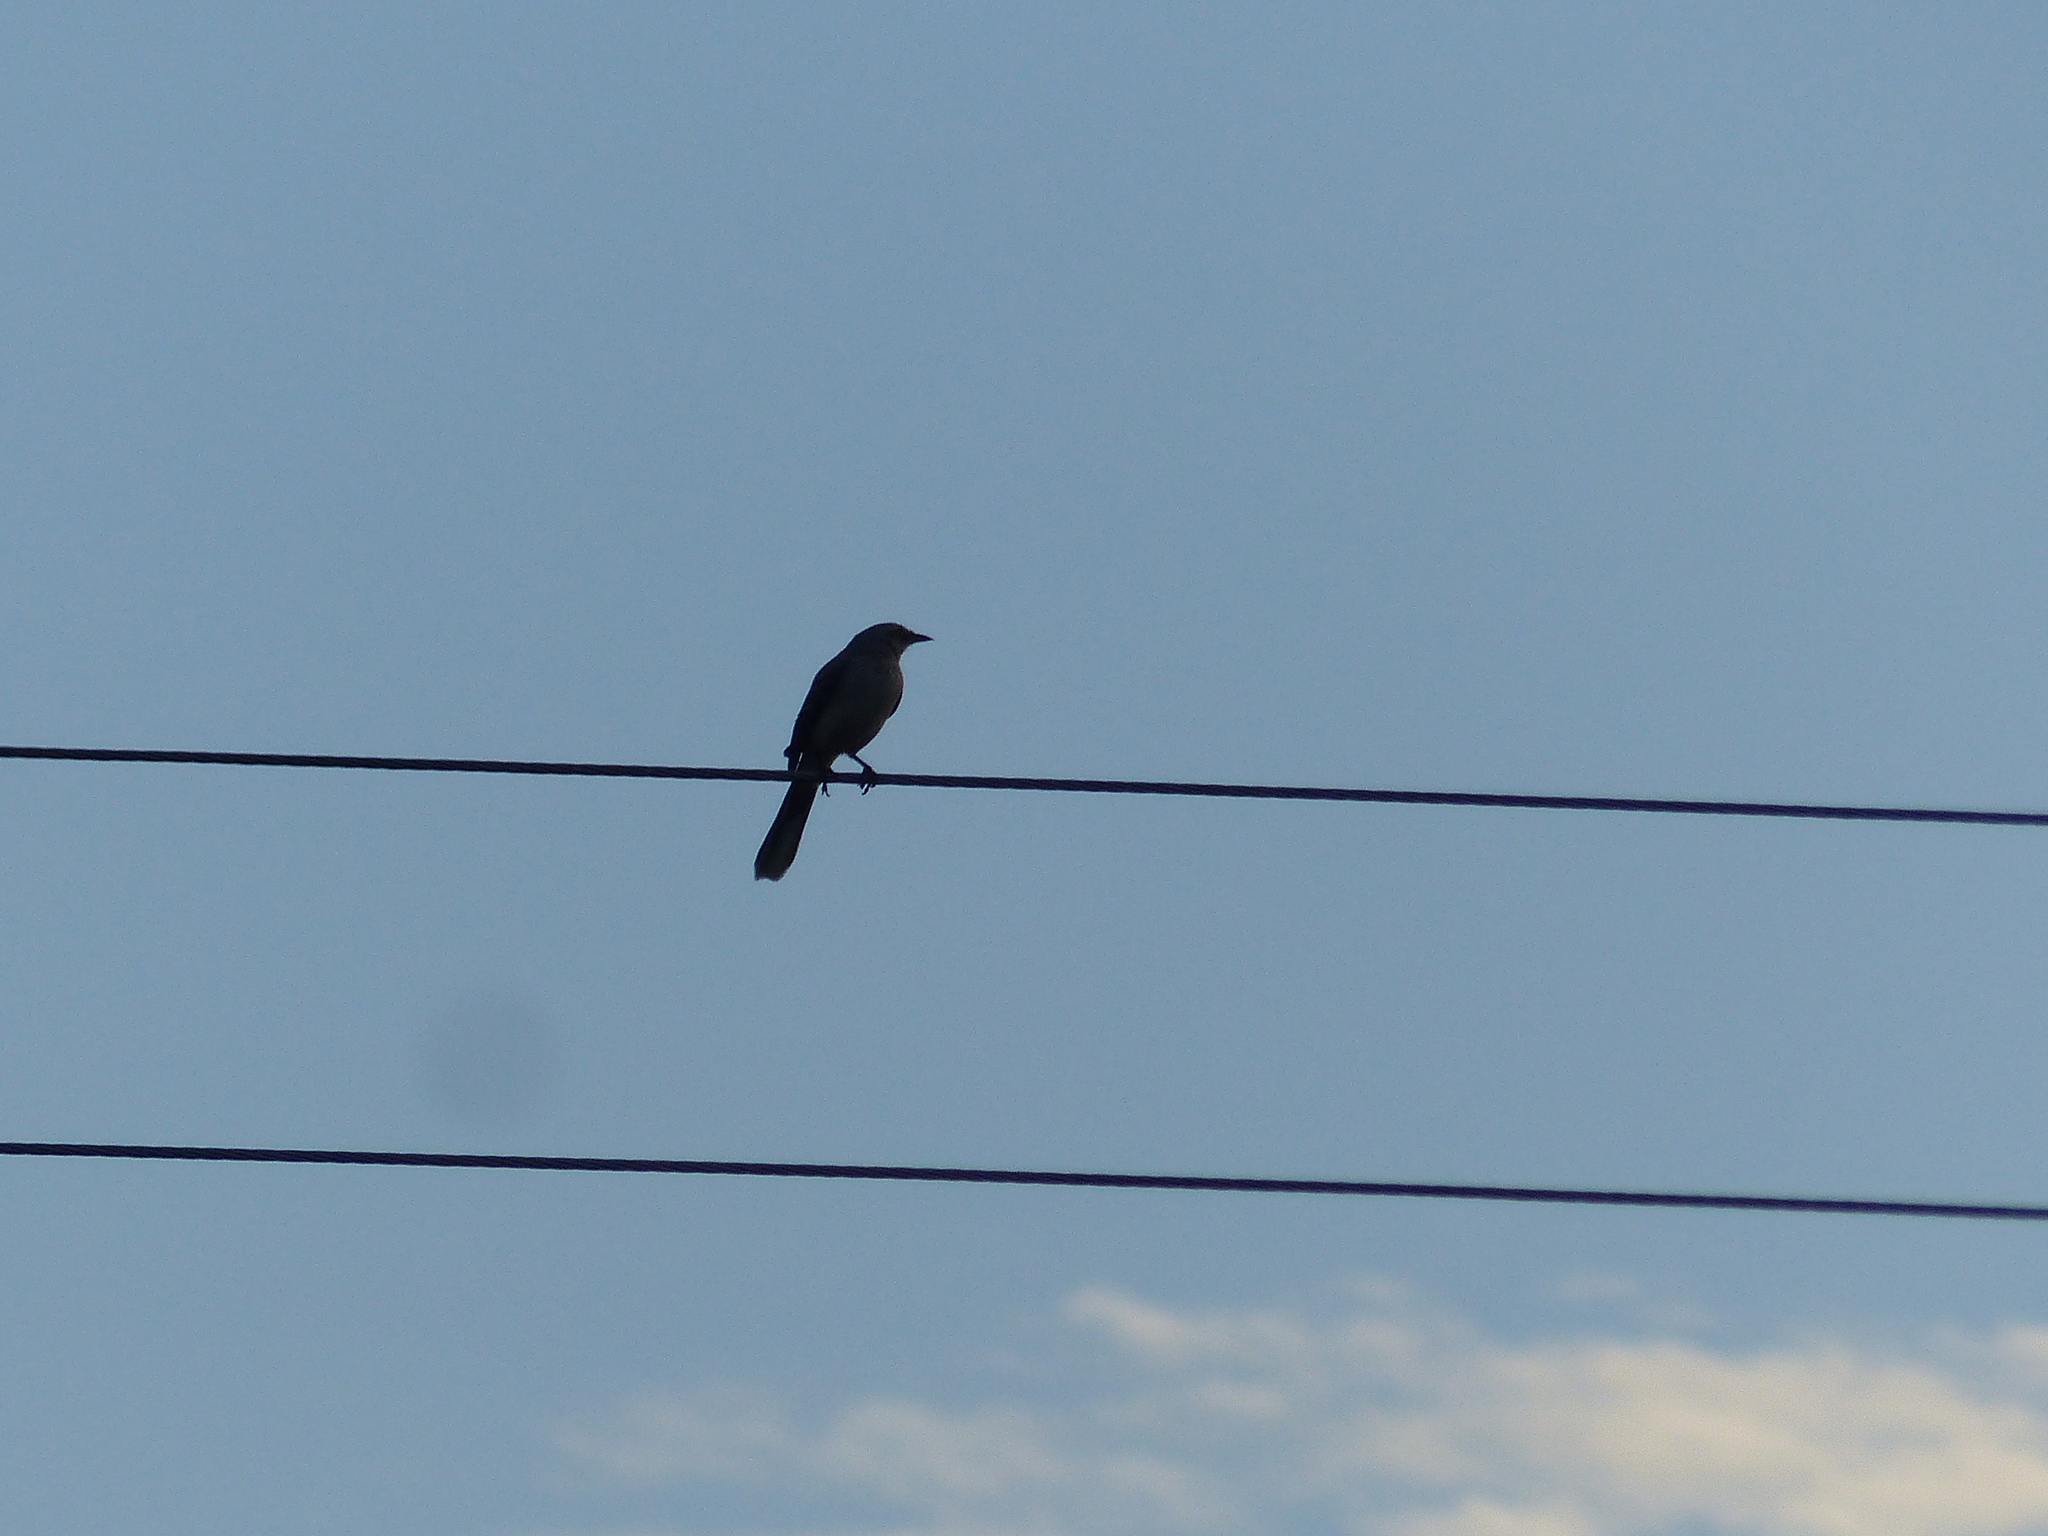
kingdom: Animalia
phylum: Chordata
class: Aves
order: Passeriformes
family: Mimidae
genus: Mimus
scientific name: Mimus gilvus
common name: Tropical mockingbird
